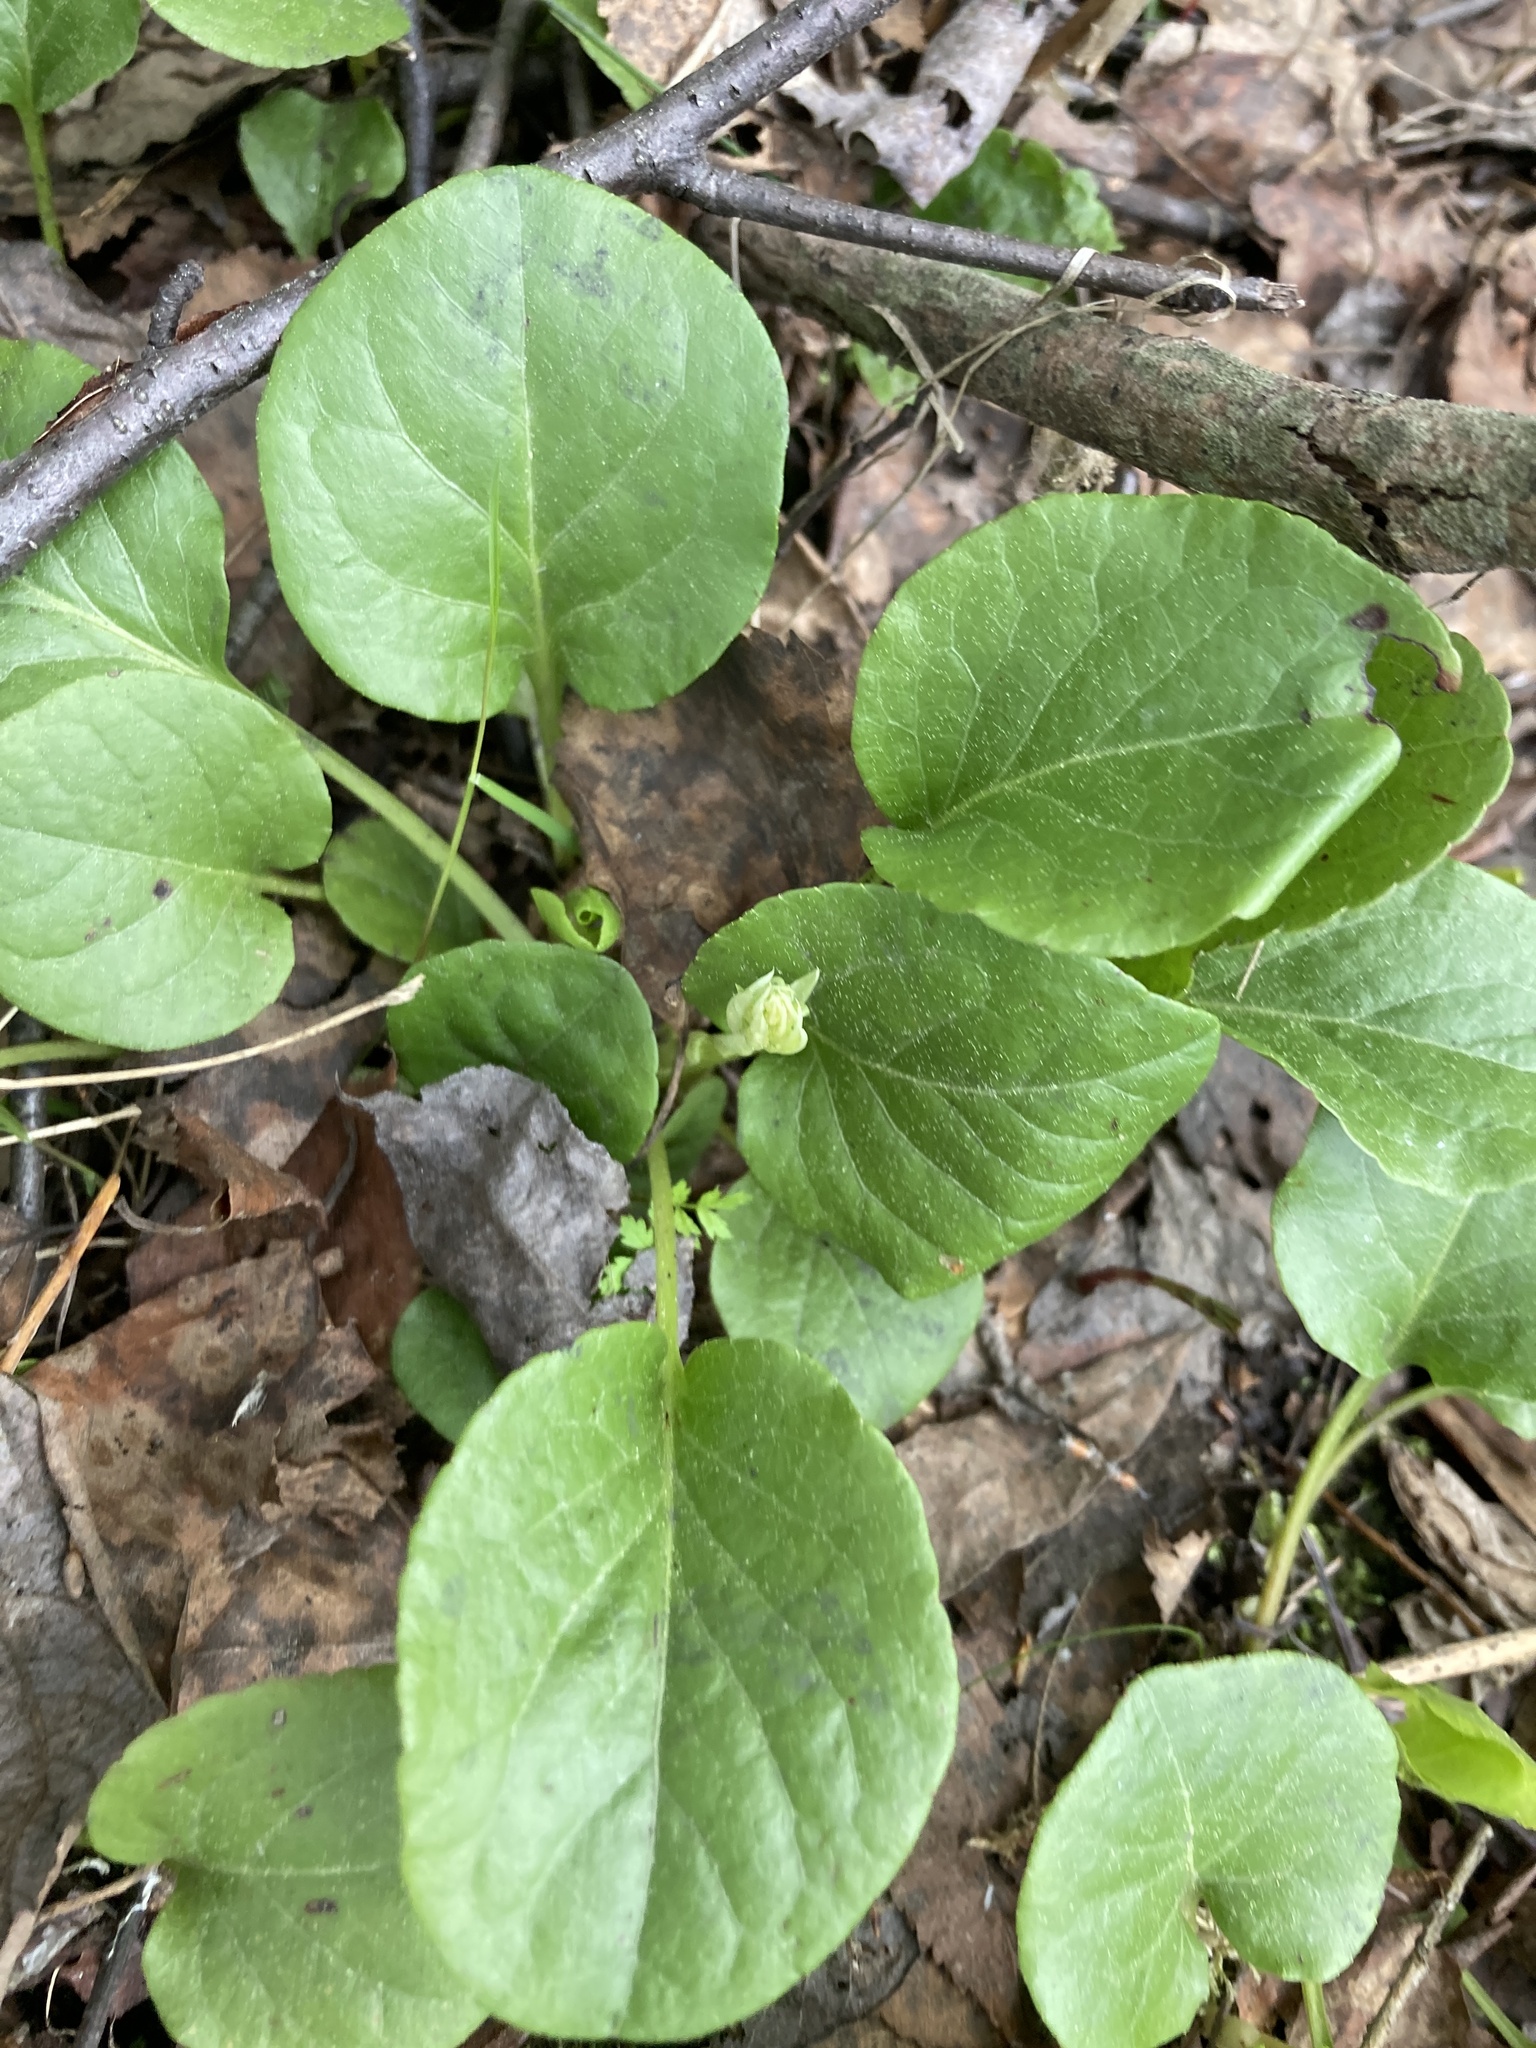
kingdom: Plantae
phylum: Tracheophyta
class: Magnoliopsida
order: Ericales
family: Ericaceae
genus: Pyrola
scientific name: Pyrola rotundifolia
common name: Round-leaved wintergreen
